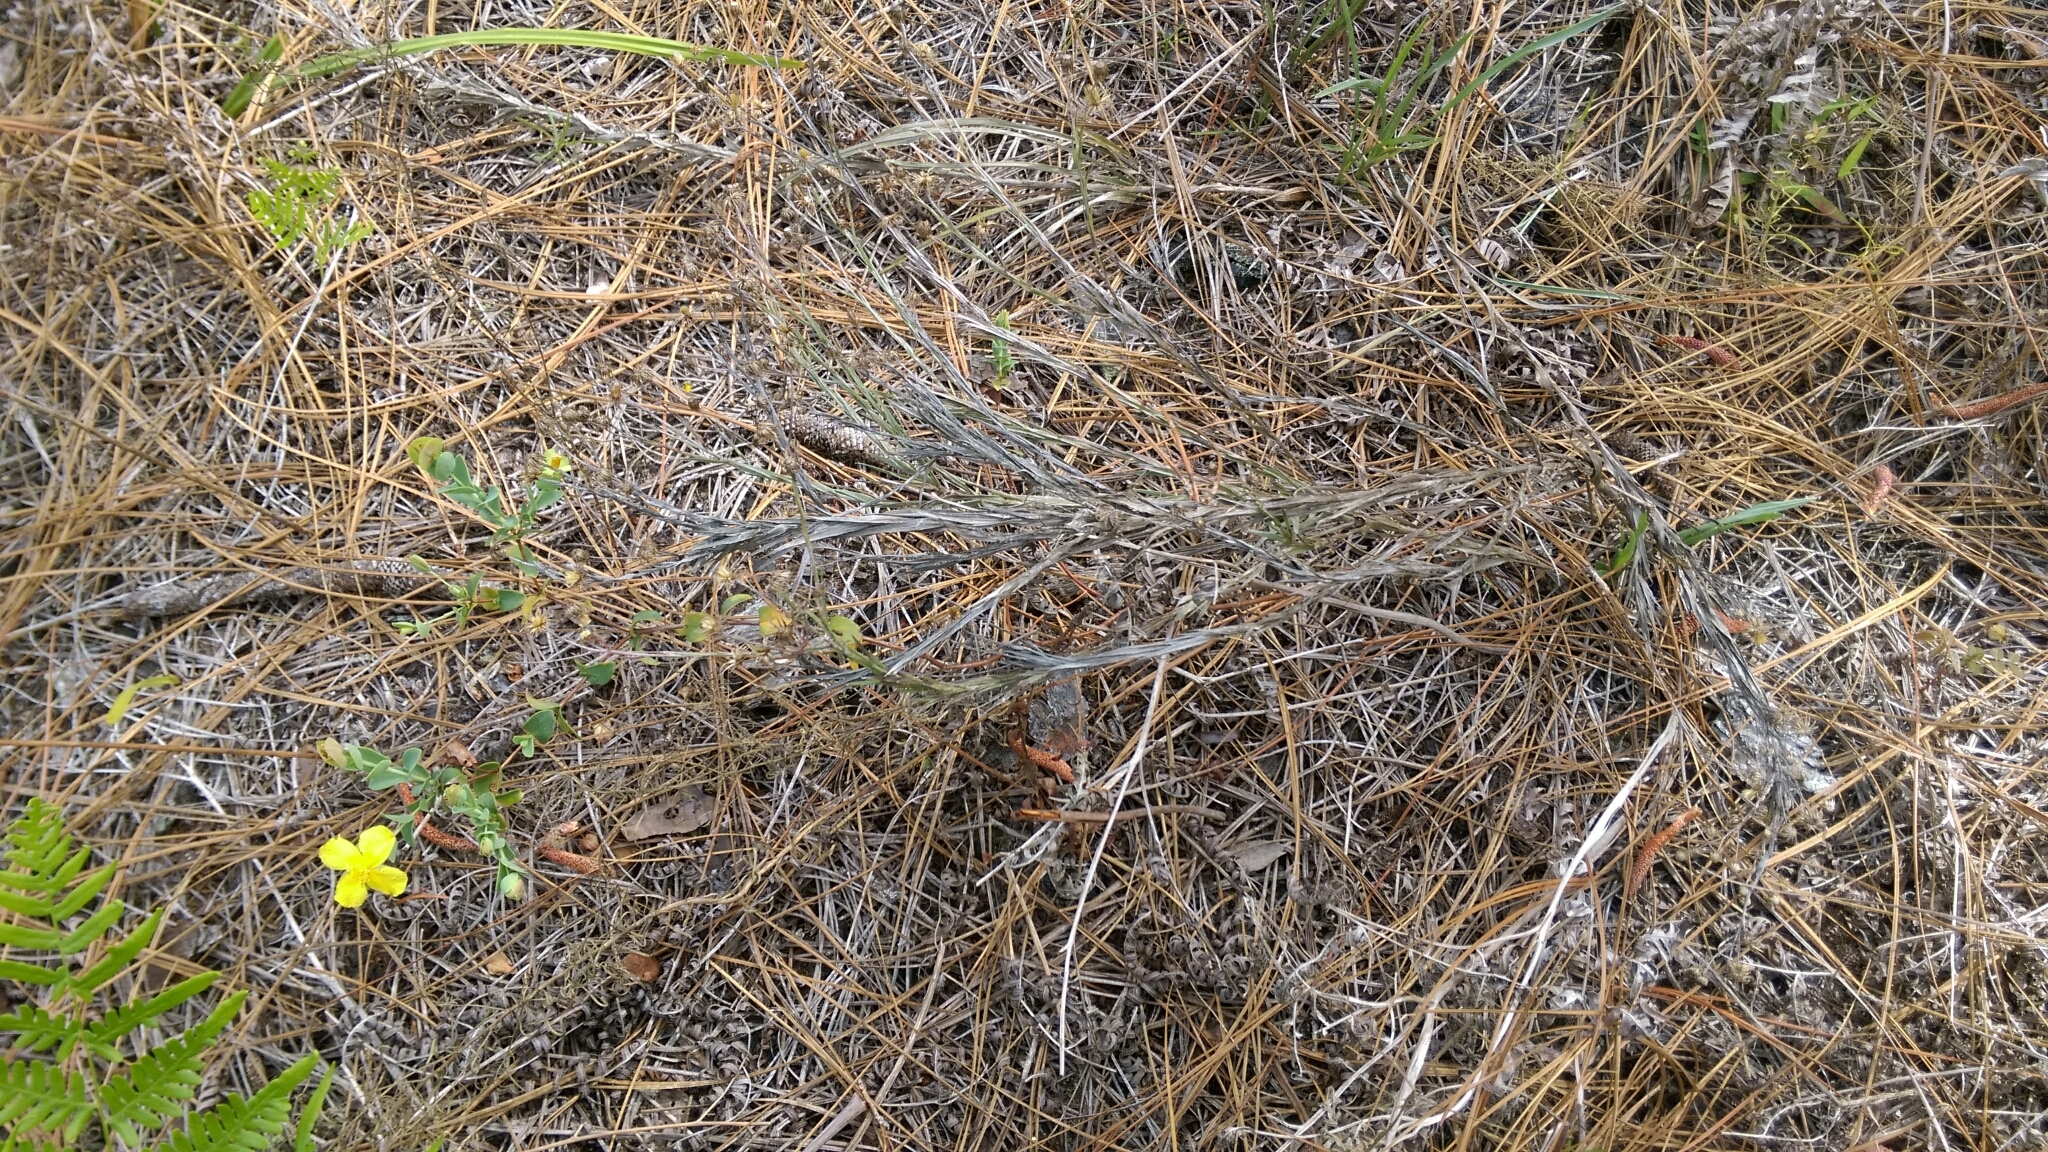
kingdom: Plantae
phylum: Tracheophyta
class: Magnoliopsida
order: Malpighiales
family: Hypericaceae
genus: Hypericum
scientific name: Hypericum tetrapetalum
